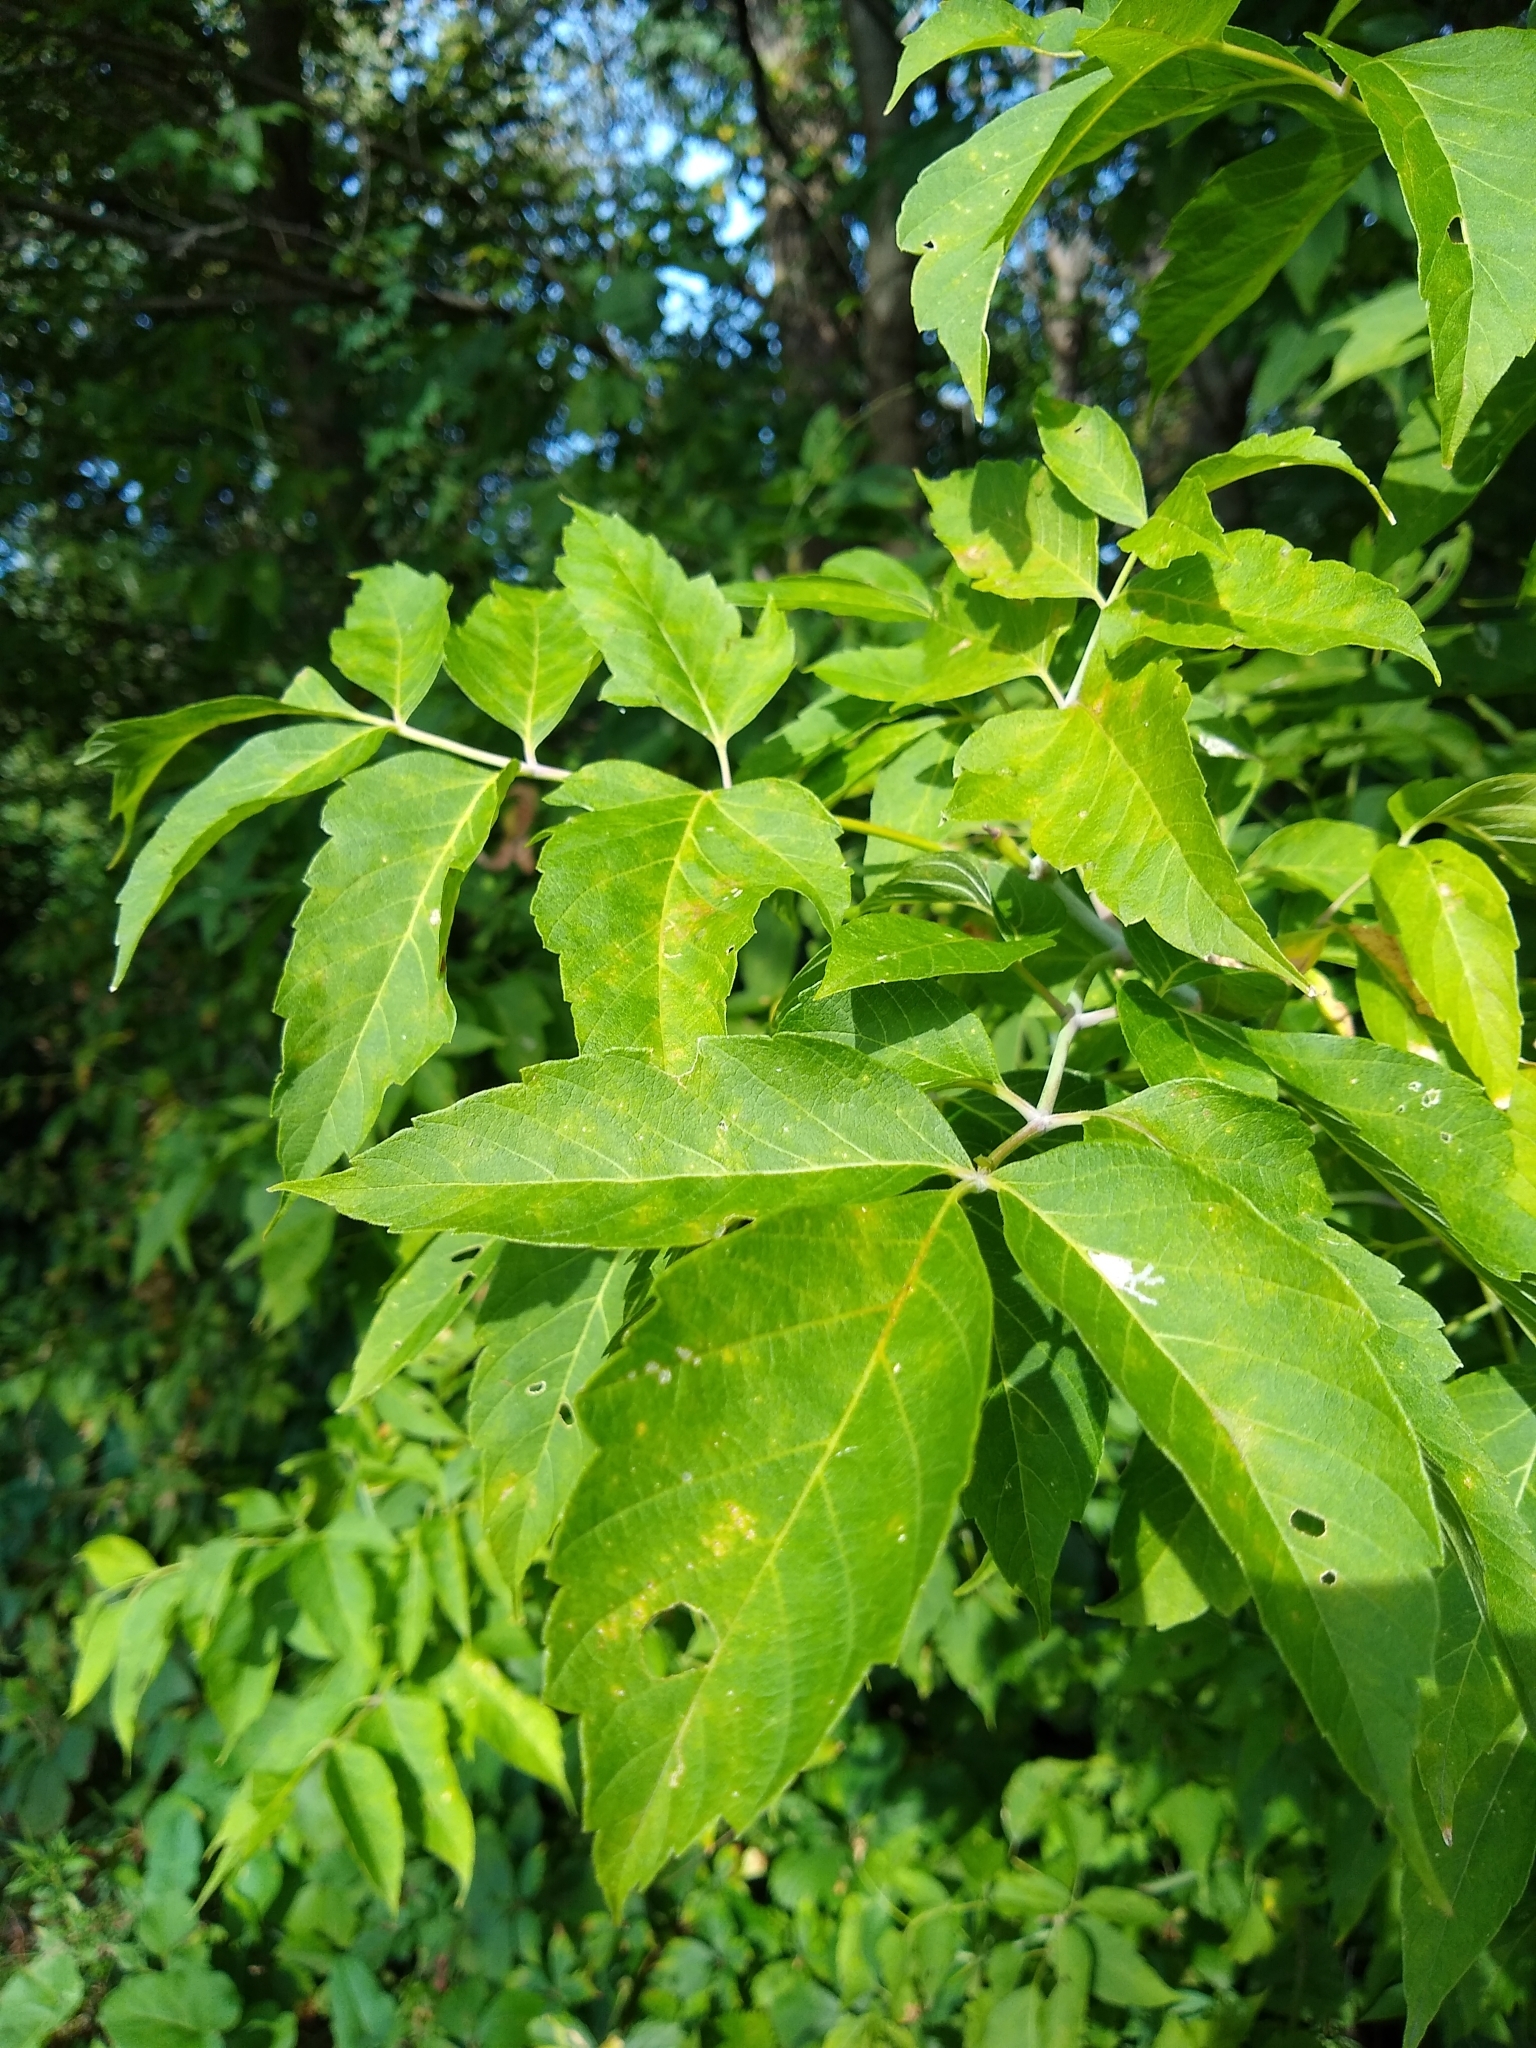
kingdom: Plantae
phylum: Tracheophyta
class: Magnoliopsida
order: Sapindales
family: Sapindaceae
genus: Acer
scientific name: Acer negundo
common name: Ashleaf maple
